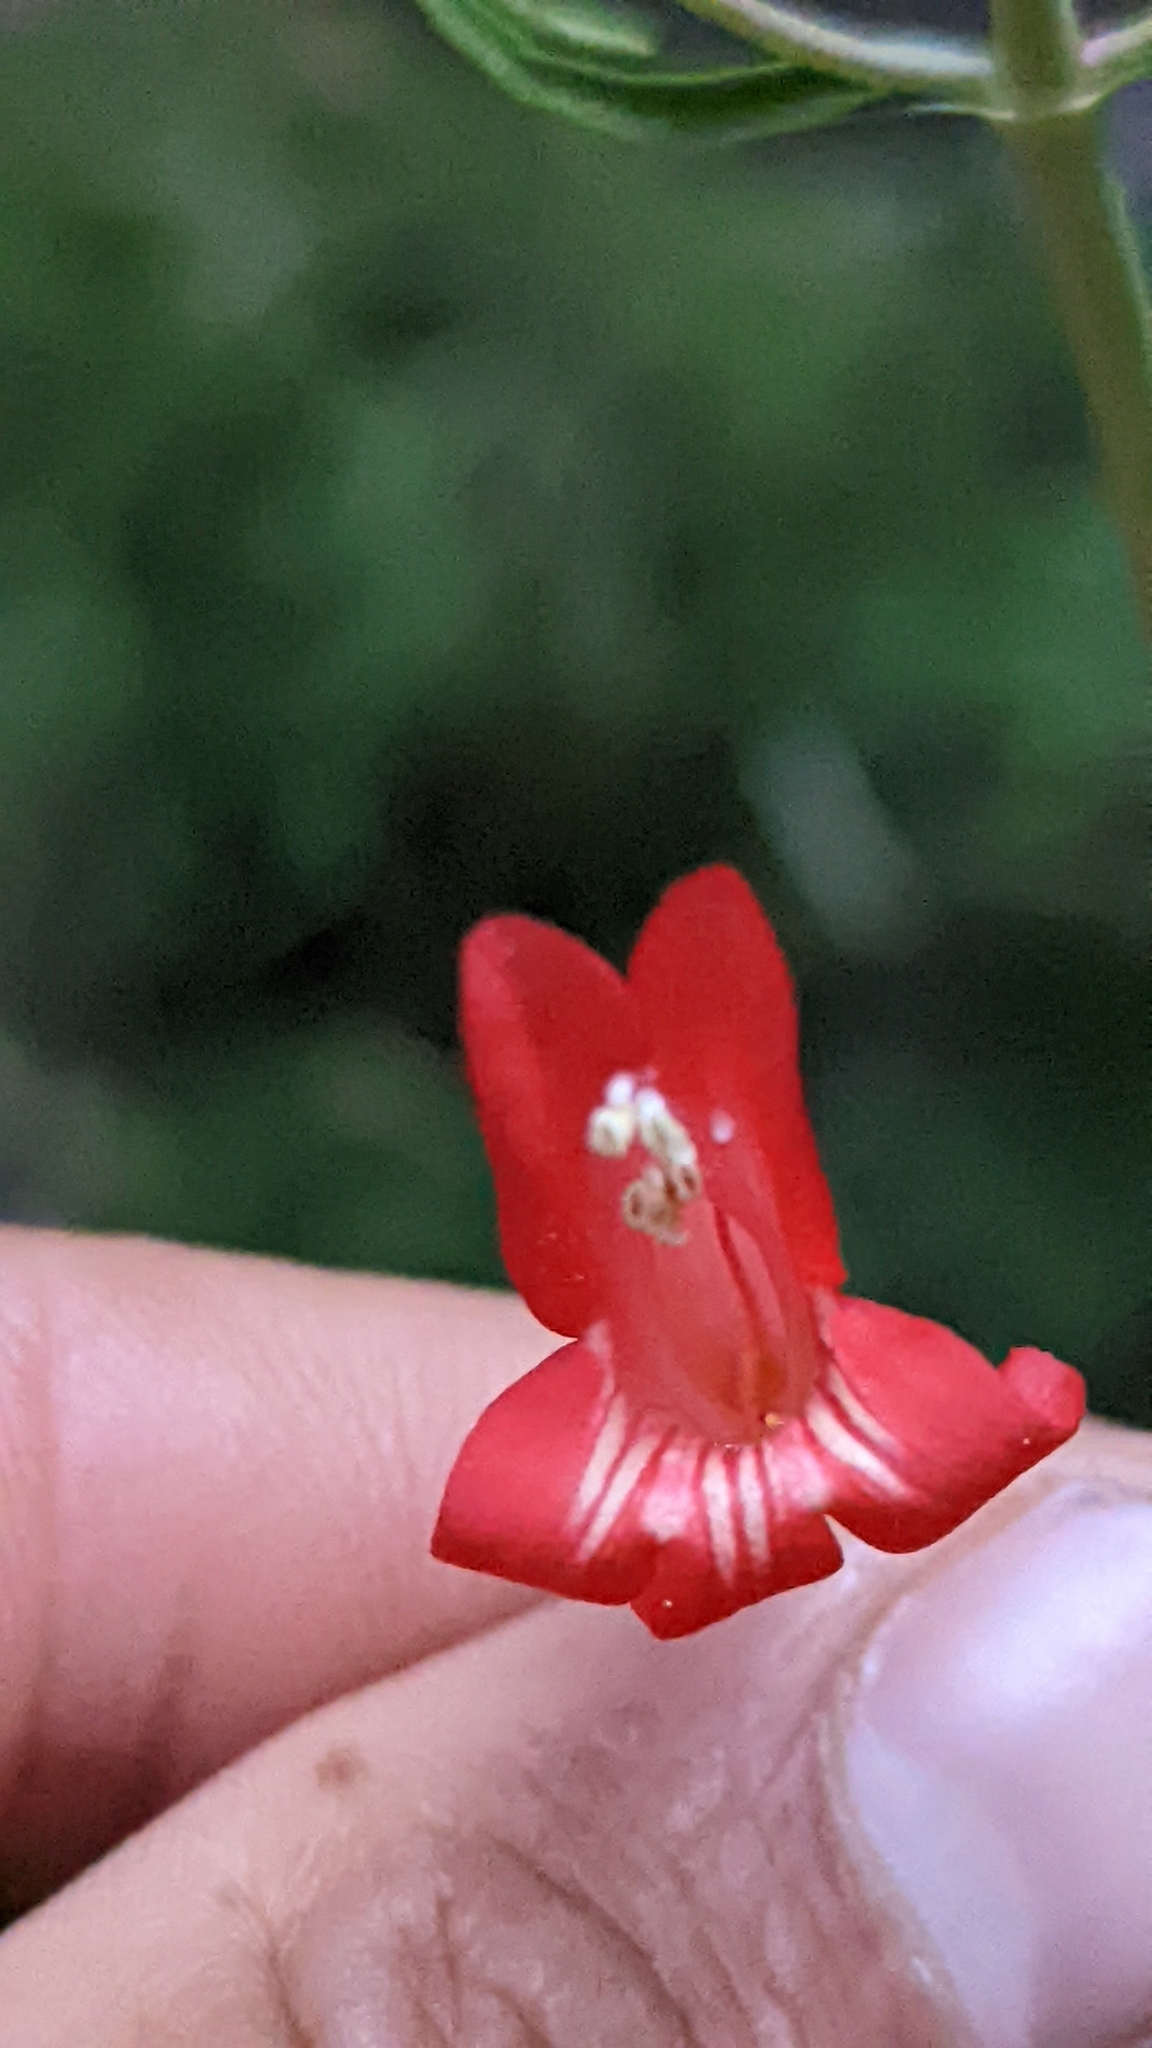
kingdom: Plantae
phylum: Tracheophyta
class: Magnoliopsida
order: Lamiales
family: Plantaginaceae
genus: Penstemon
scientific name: Penstemon barbatus
